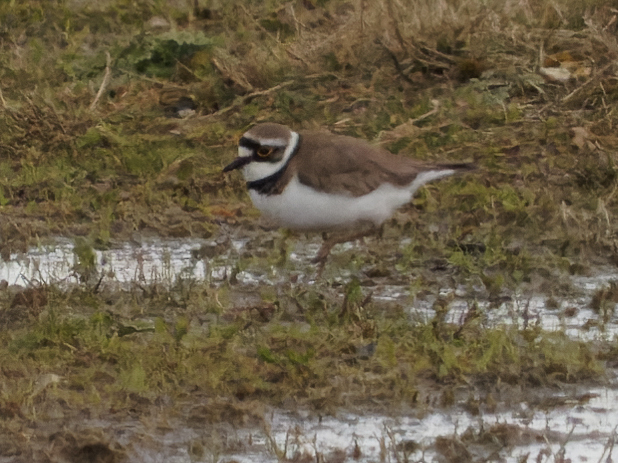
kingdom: Animalia
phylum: Chordata
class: Aves
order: Charadriiformes
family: Charadriidae
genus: Charadrius
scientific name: Charadrius dubius
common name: Little ringed plover
